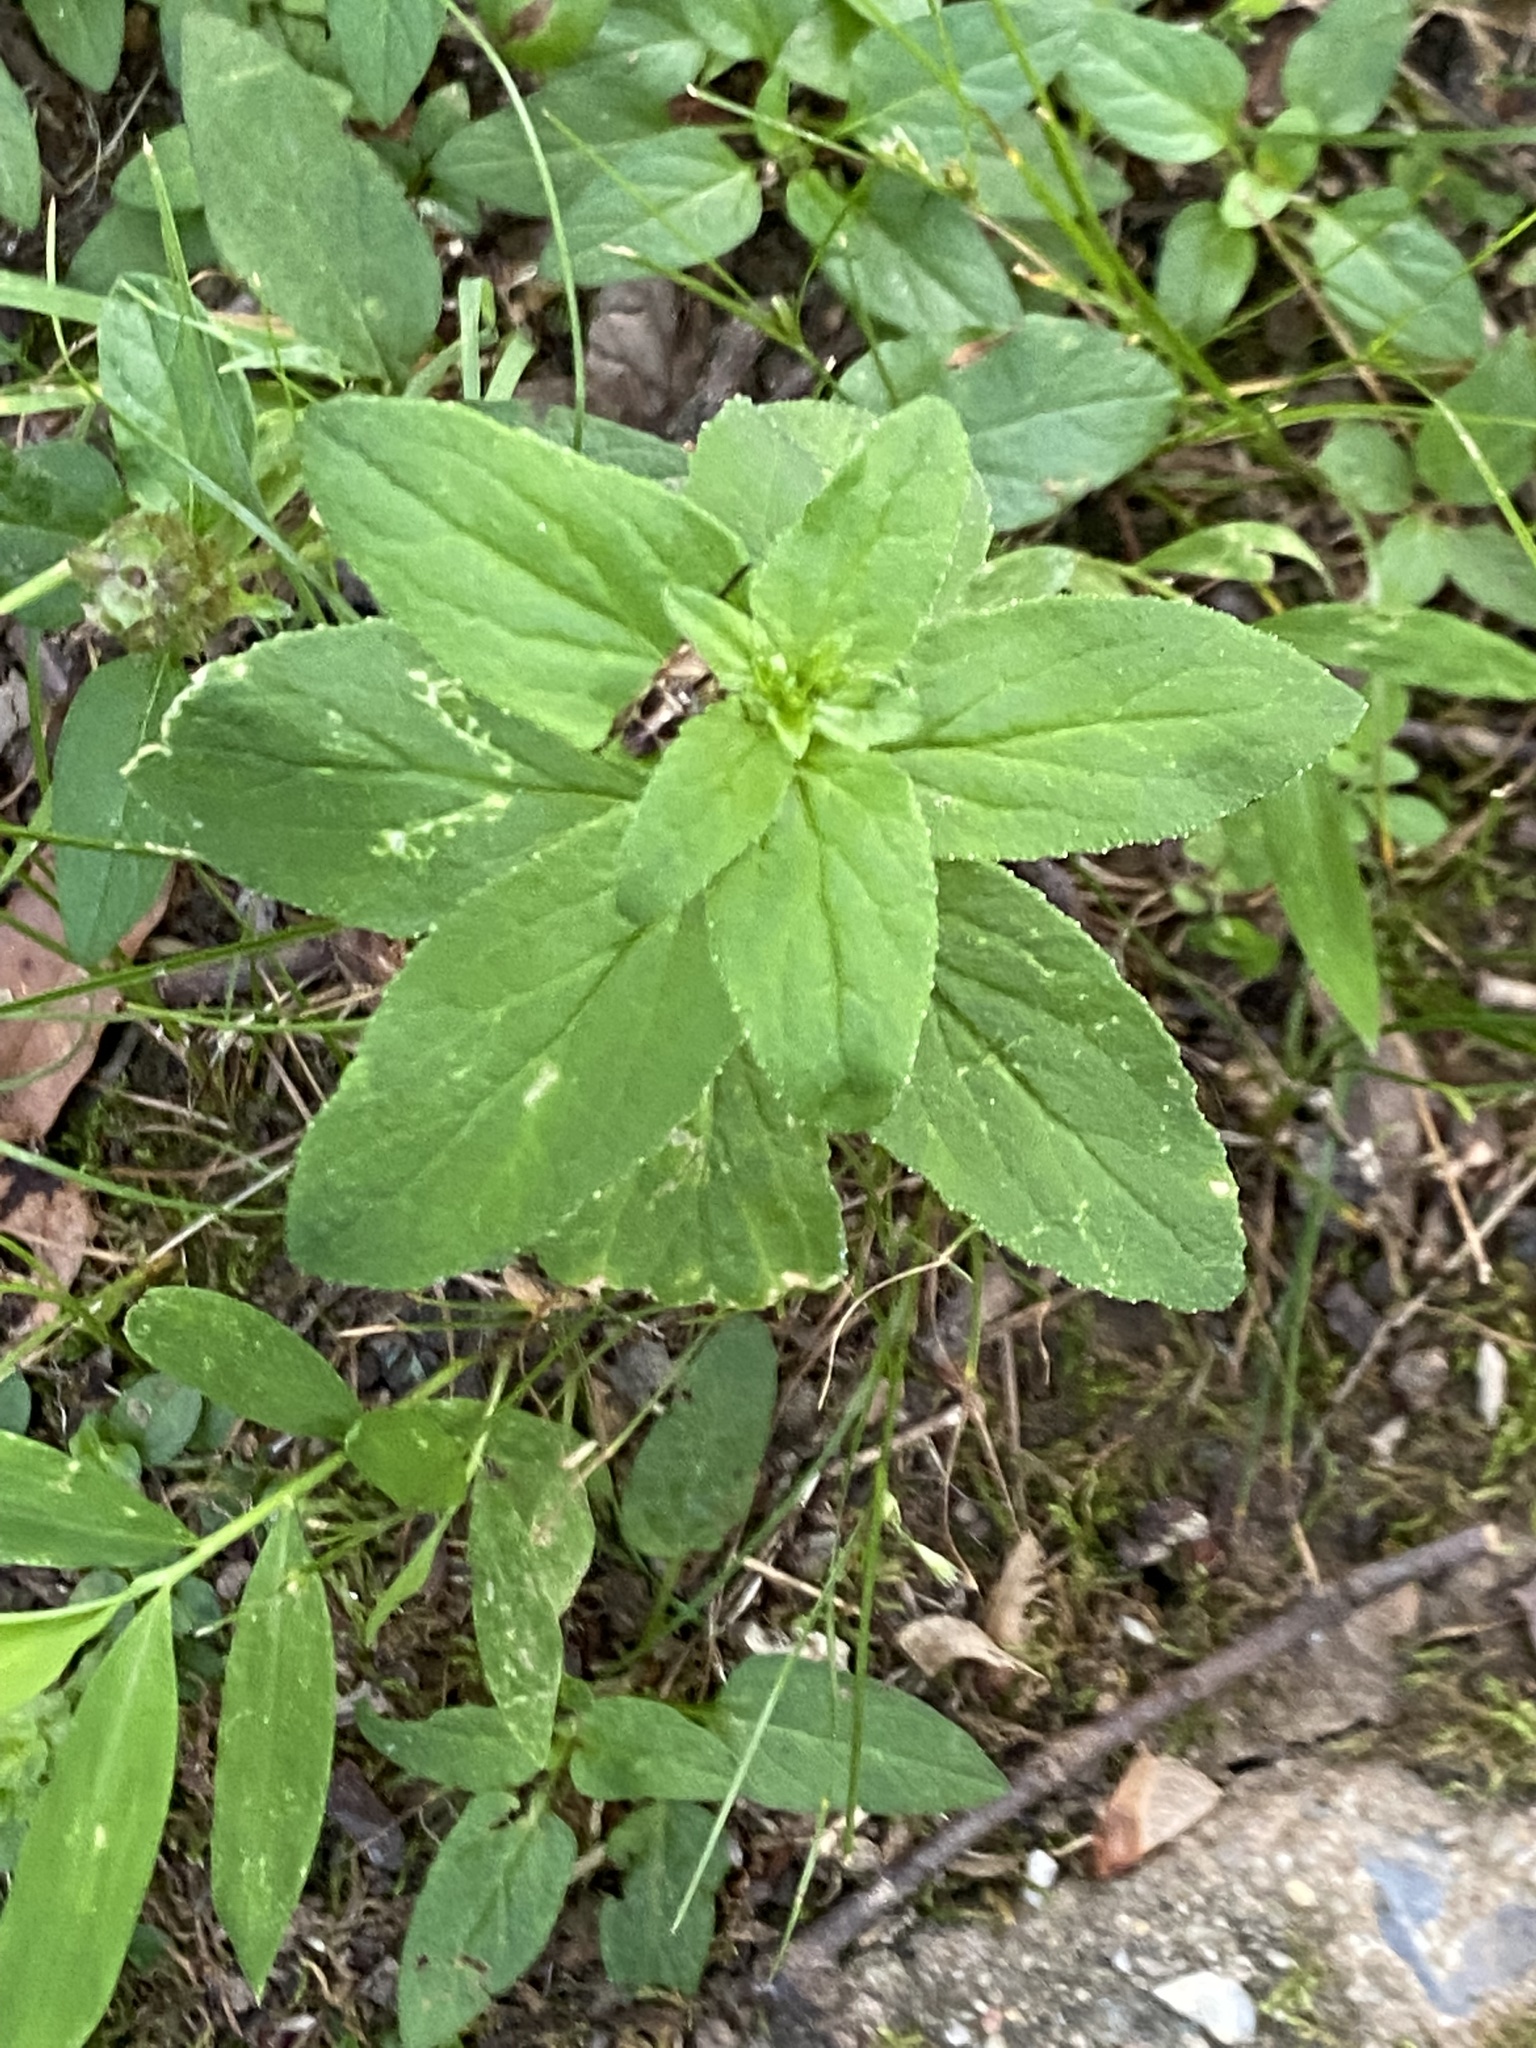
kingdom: Plantae
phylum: Tracheophyta
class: Magnoliopsida
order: Lamiales
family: Lamiaceae
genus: Prunella
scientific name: Prunella vulgaris
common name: Heal-all
